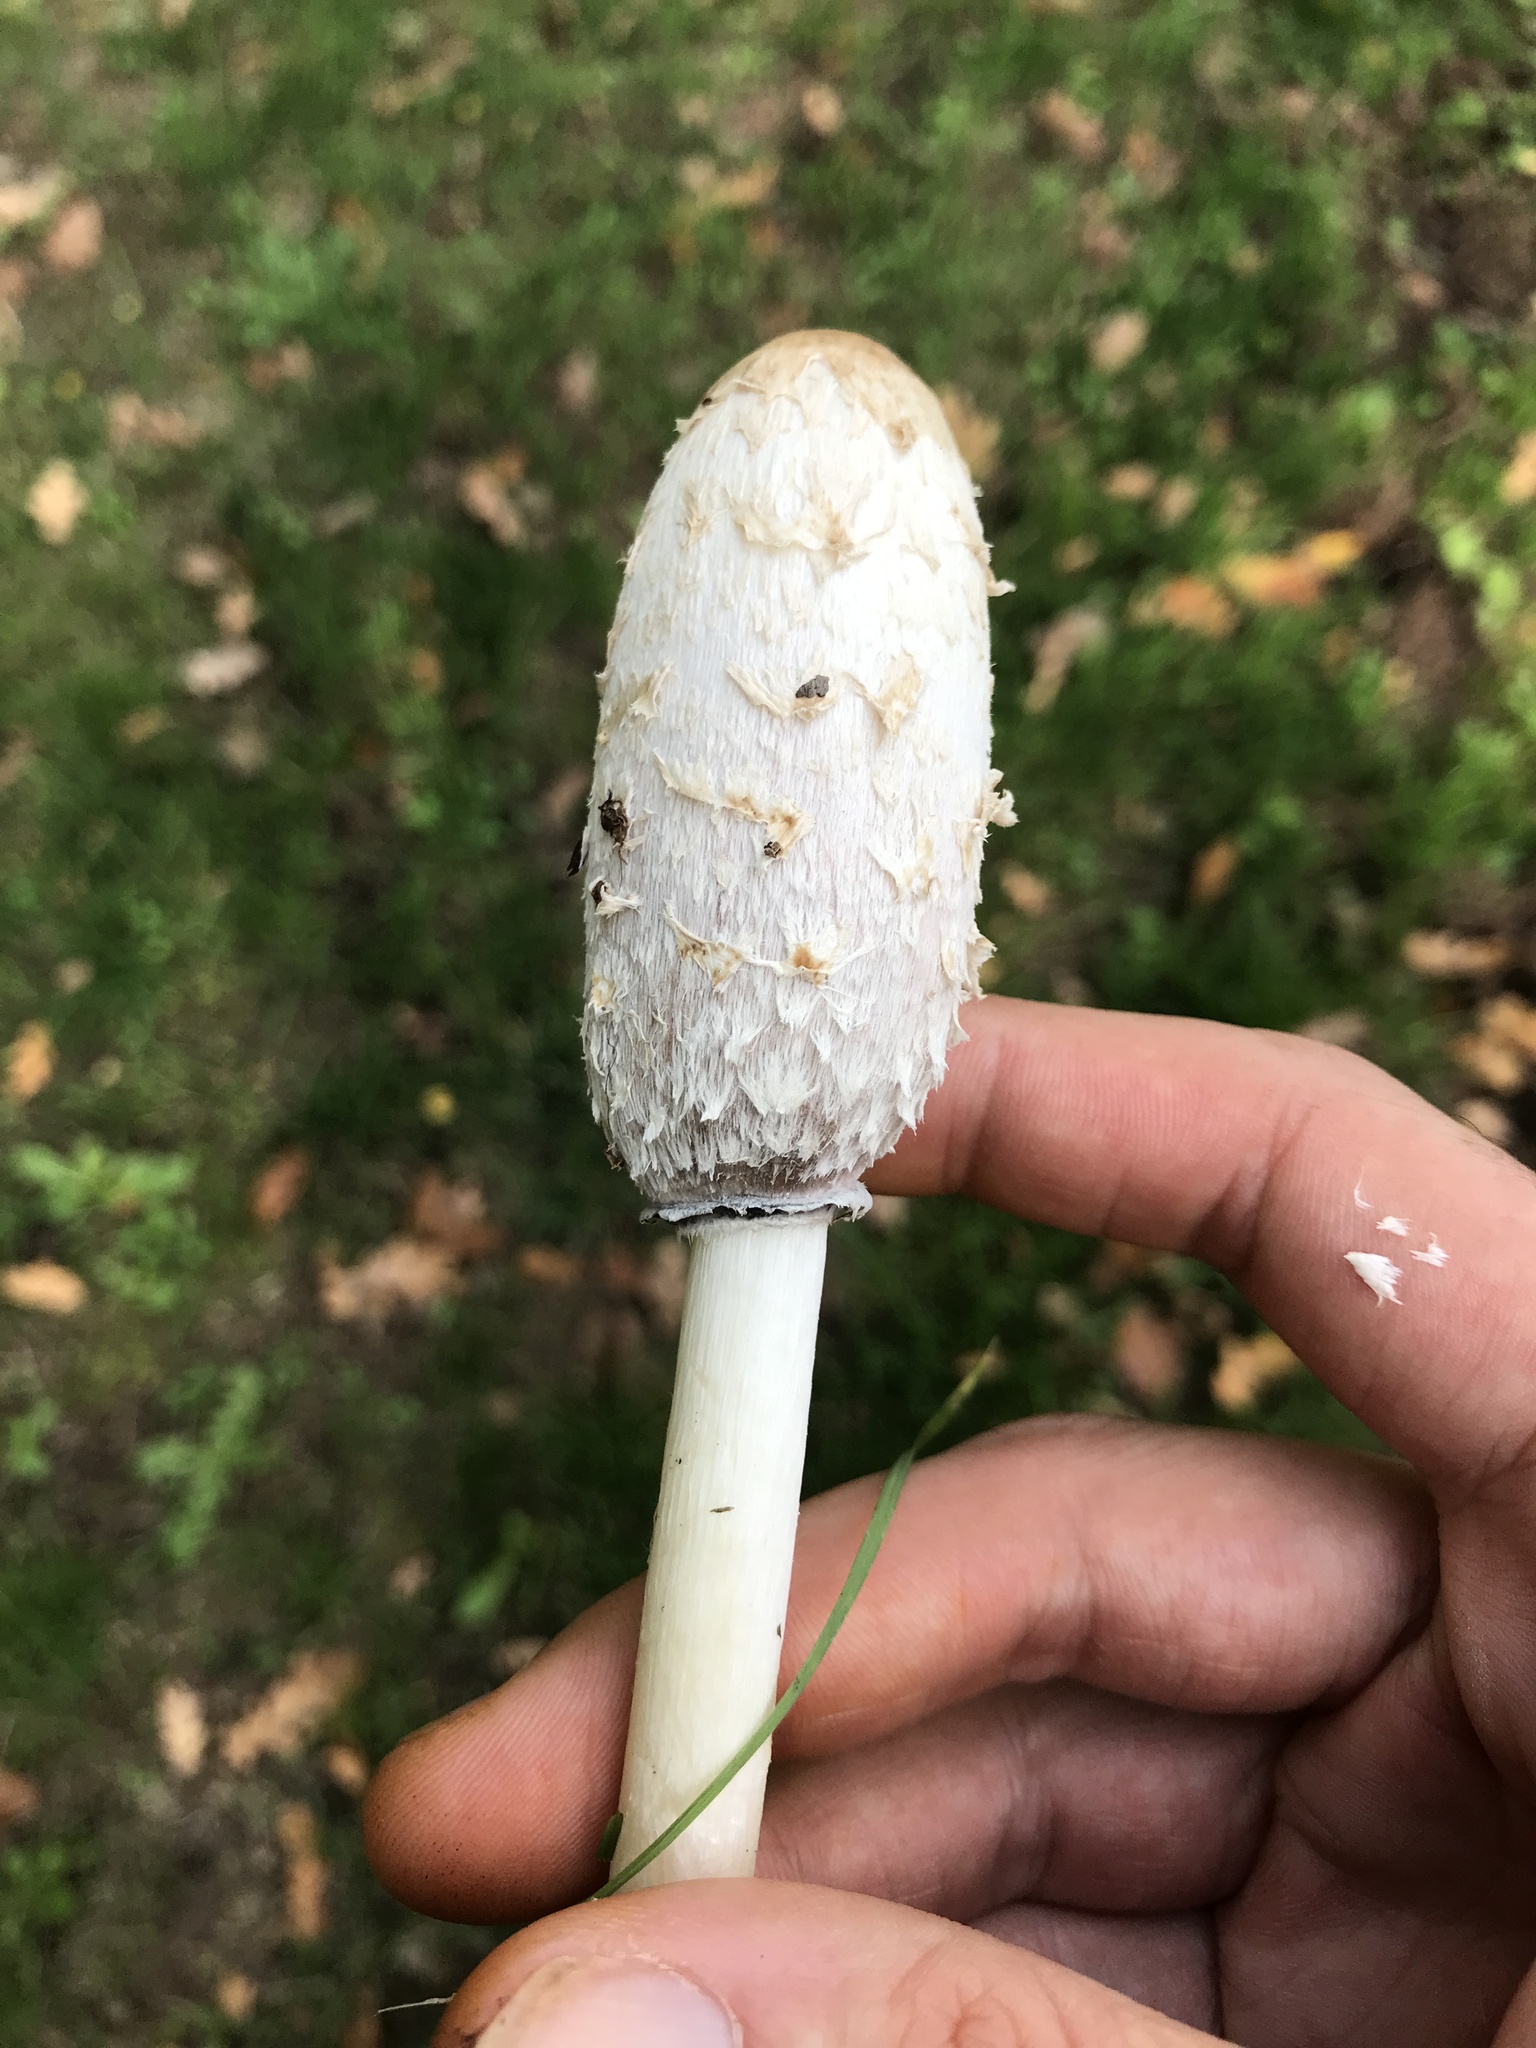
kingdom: Fungi
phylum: Basidiomycota
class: Agaricomycetes
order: Agaricales
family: Agaricaceae
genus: Coprinus
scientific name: Coprinus comatus
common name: Lawyer's wig
